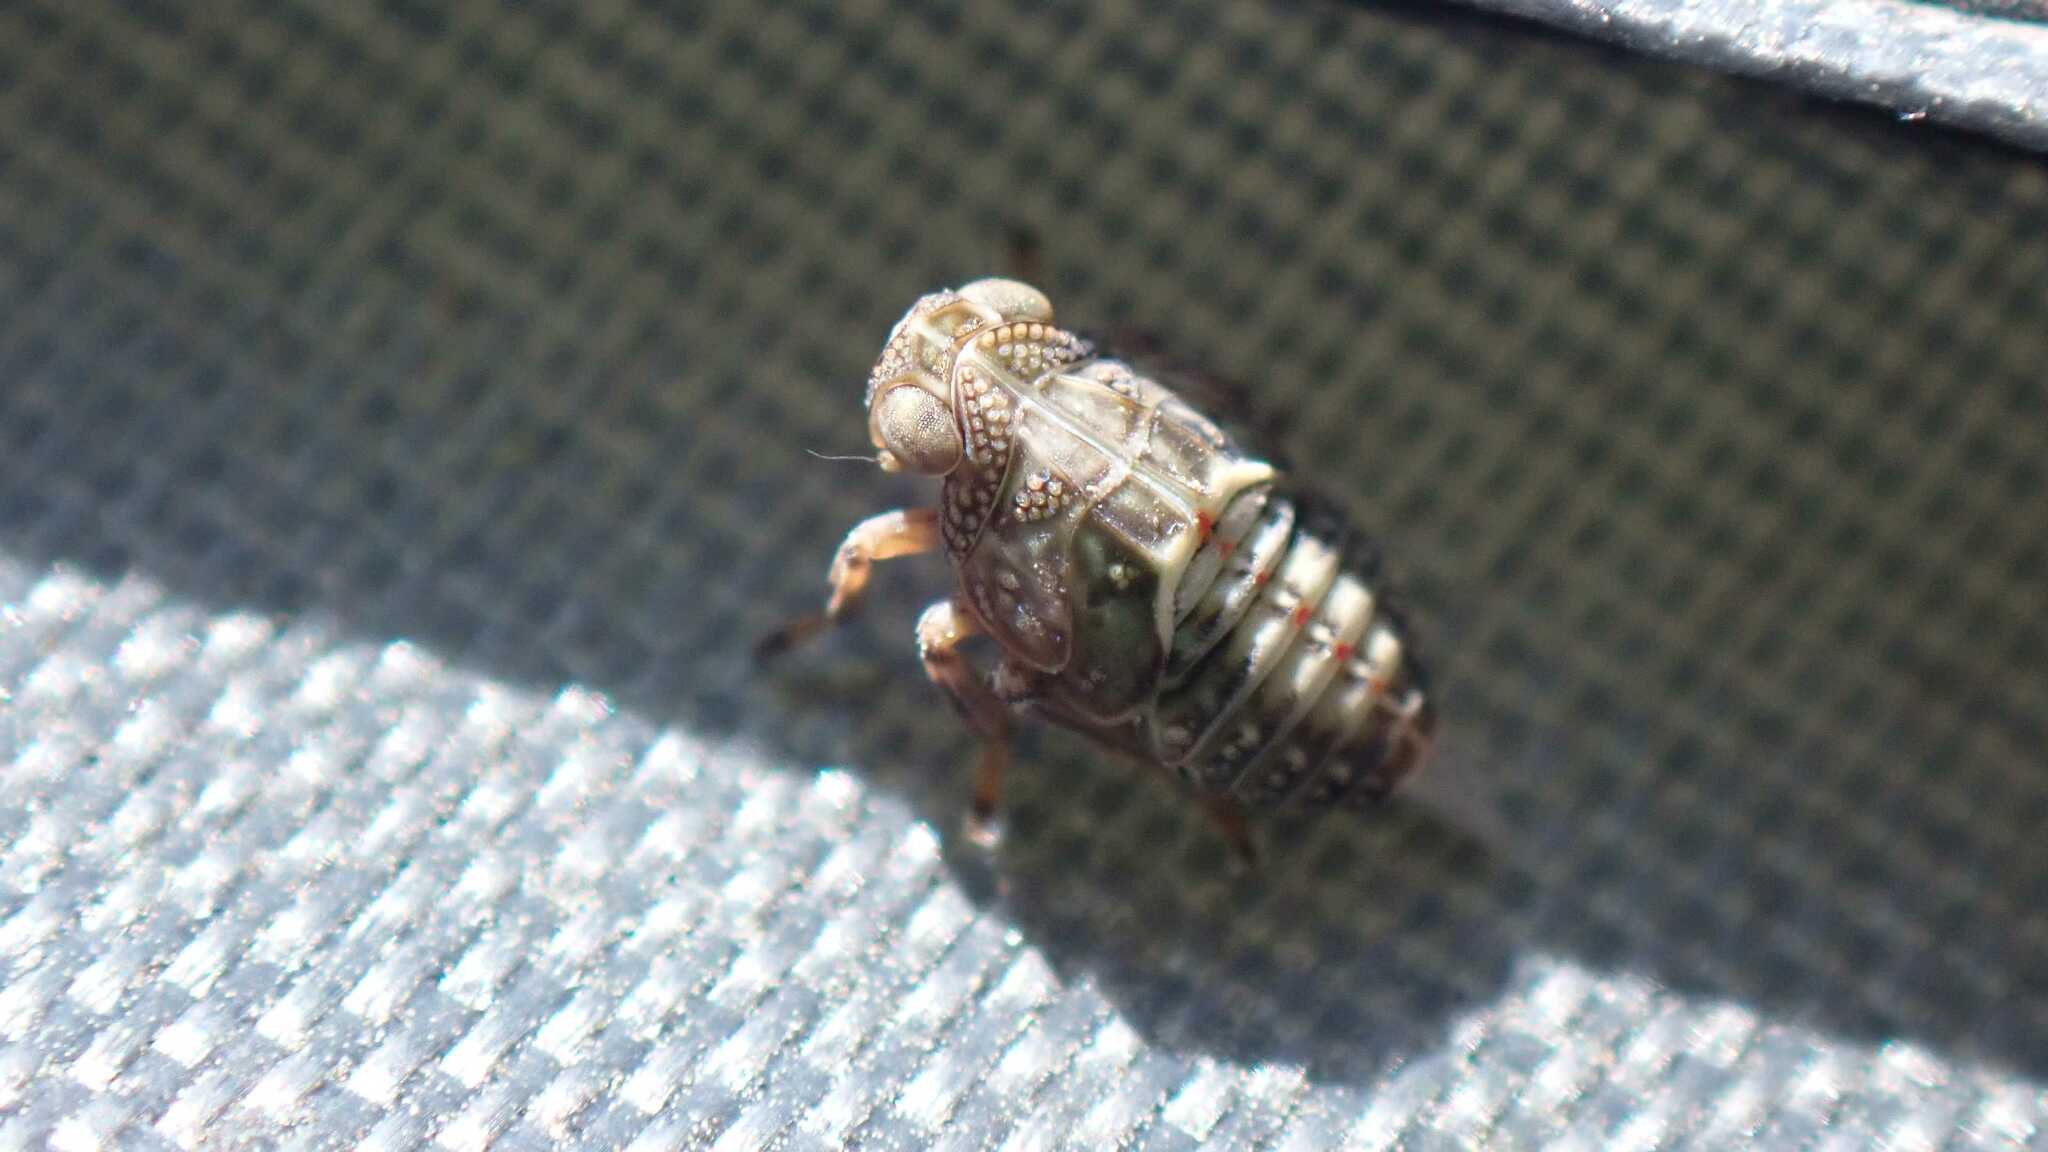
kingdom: Animalia
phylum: Arthropoda
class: Insecta
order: Hemiptera
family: Issidae
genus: Issus
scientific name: Issus coleoptratus
